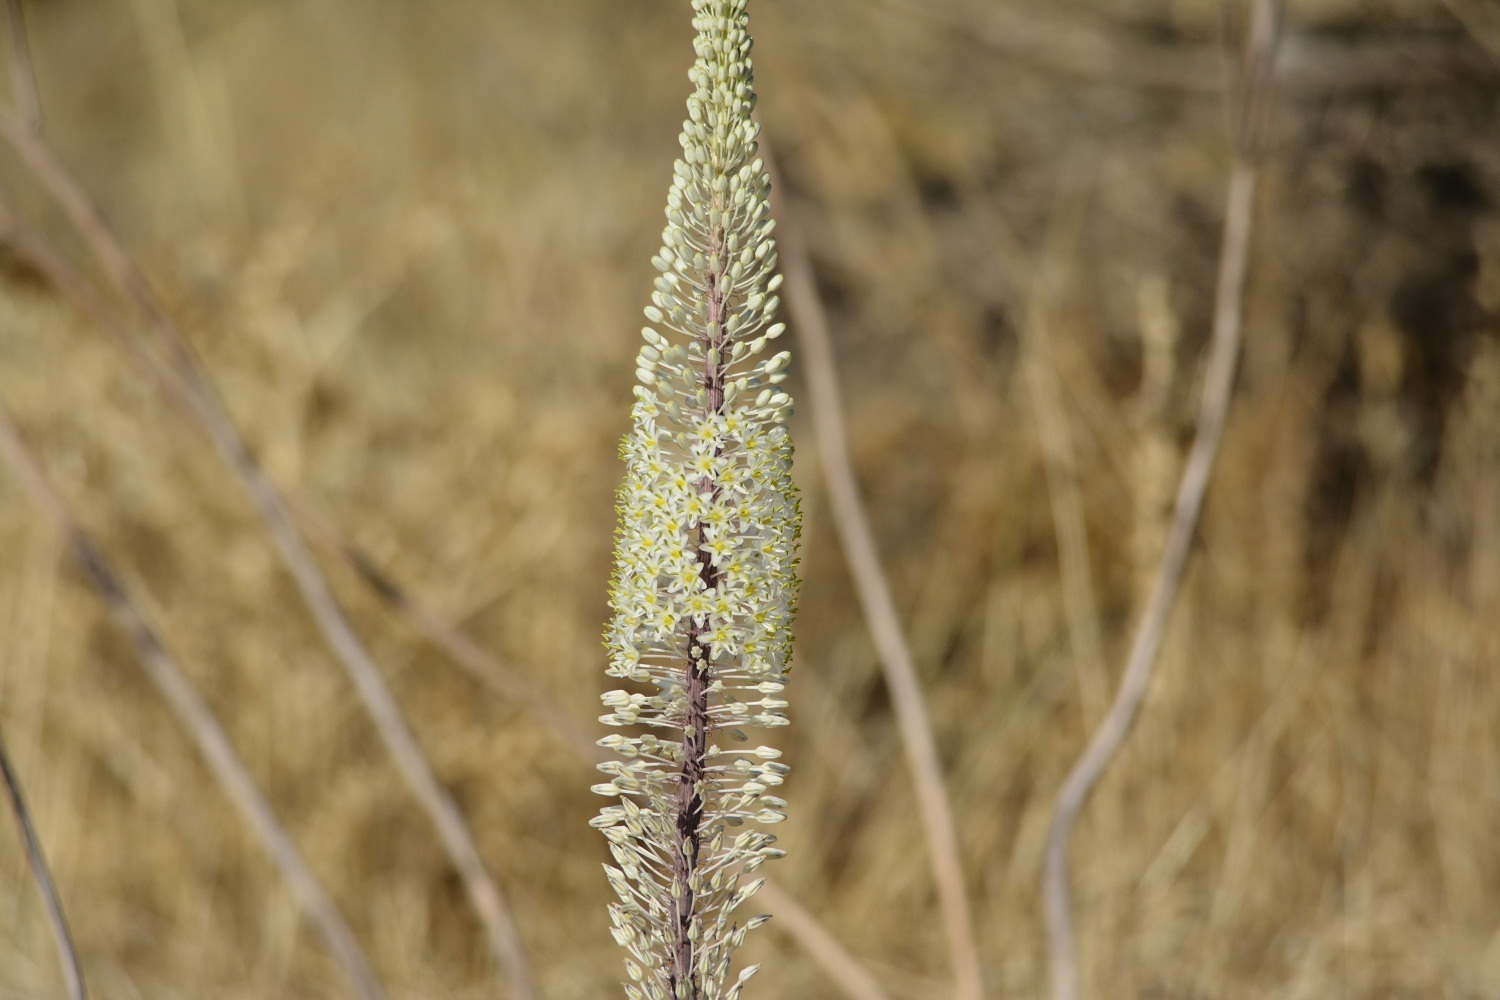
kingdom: Plantae
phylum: Tracheophyta
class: Liliopsida
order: Asparagales
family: Asparagaceae
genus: Drimia
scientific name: Drimia numidica
